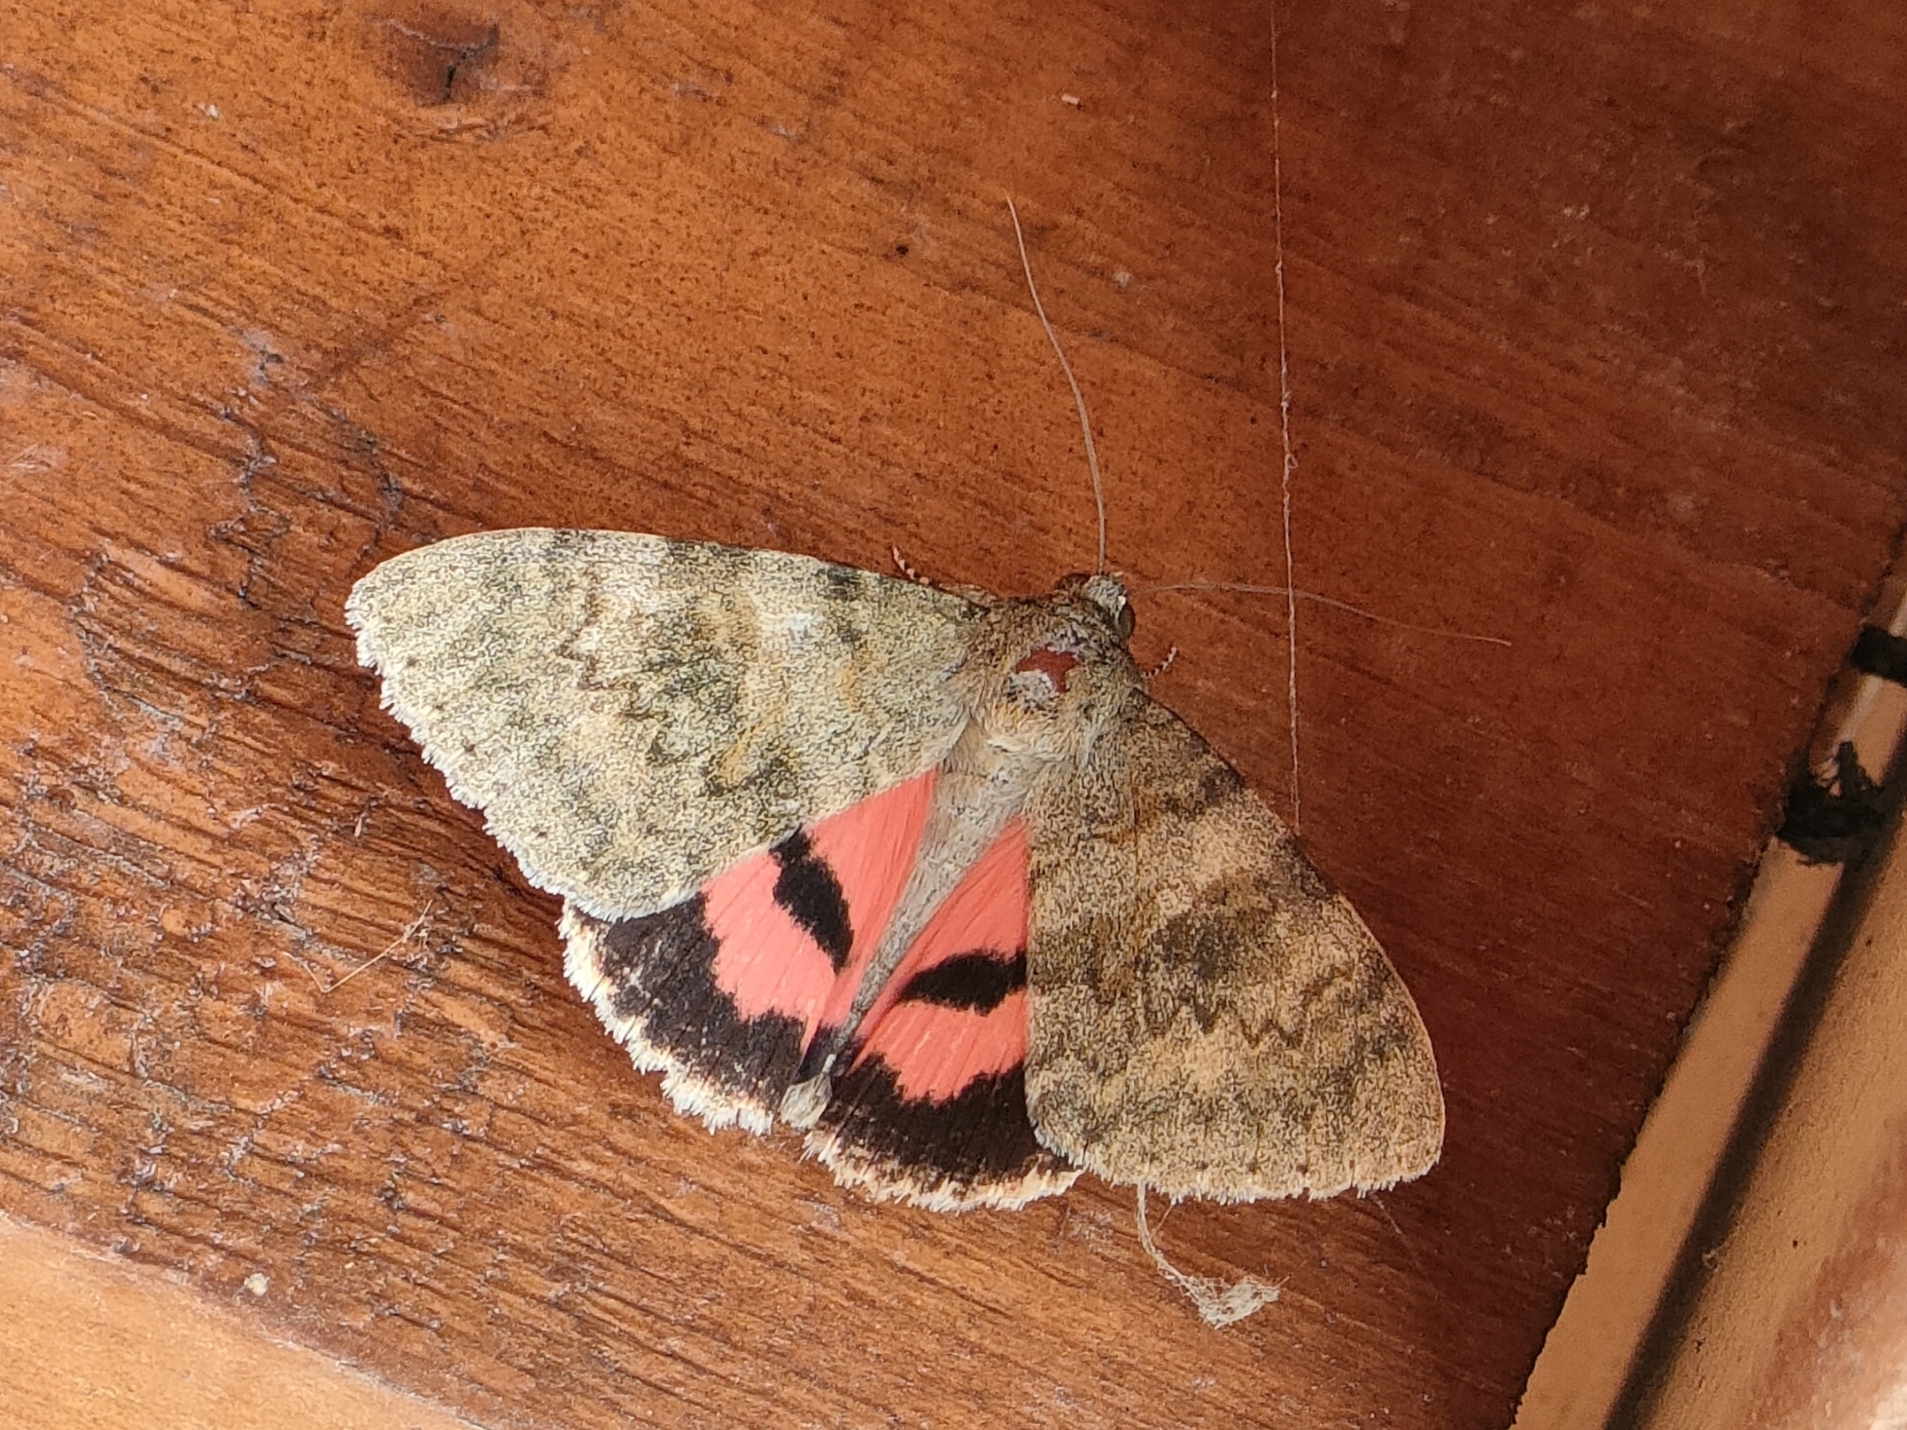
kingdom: Animalia
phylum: Arthropoda
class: Insecta
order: Lepidoptera
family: Erebidae
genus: Catocala
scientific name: Catocala elocata
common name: French red underwing
